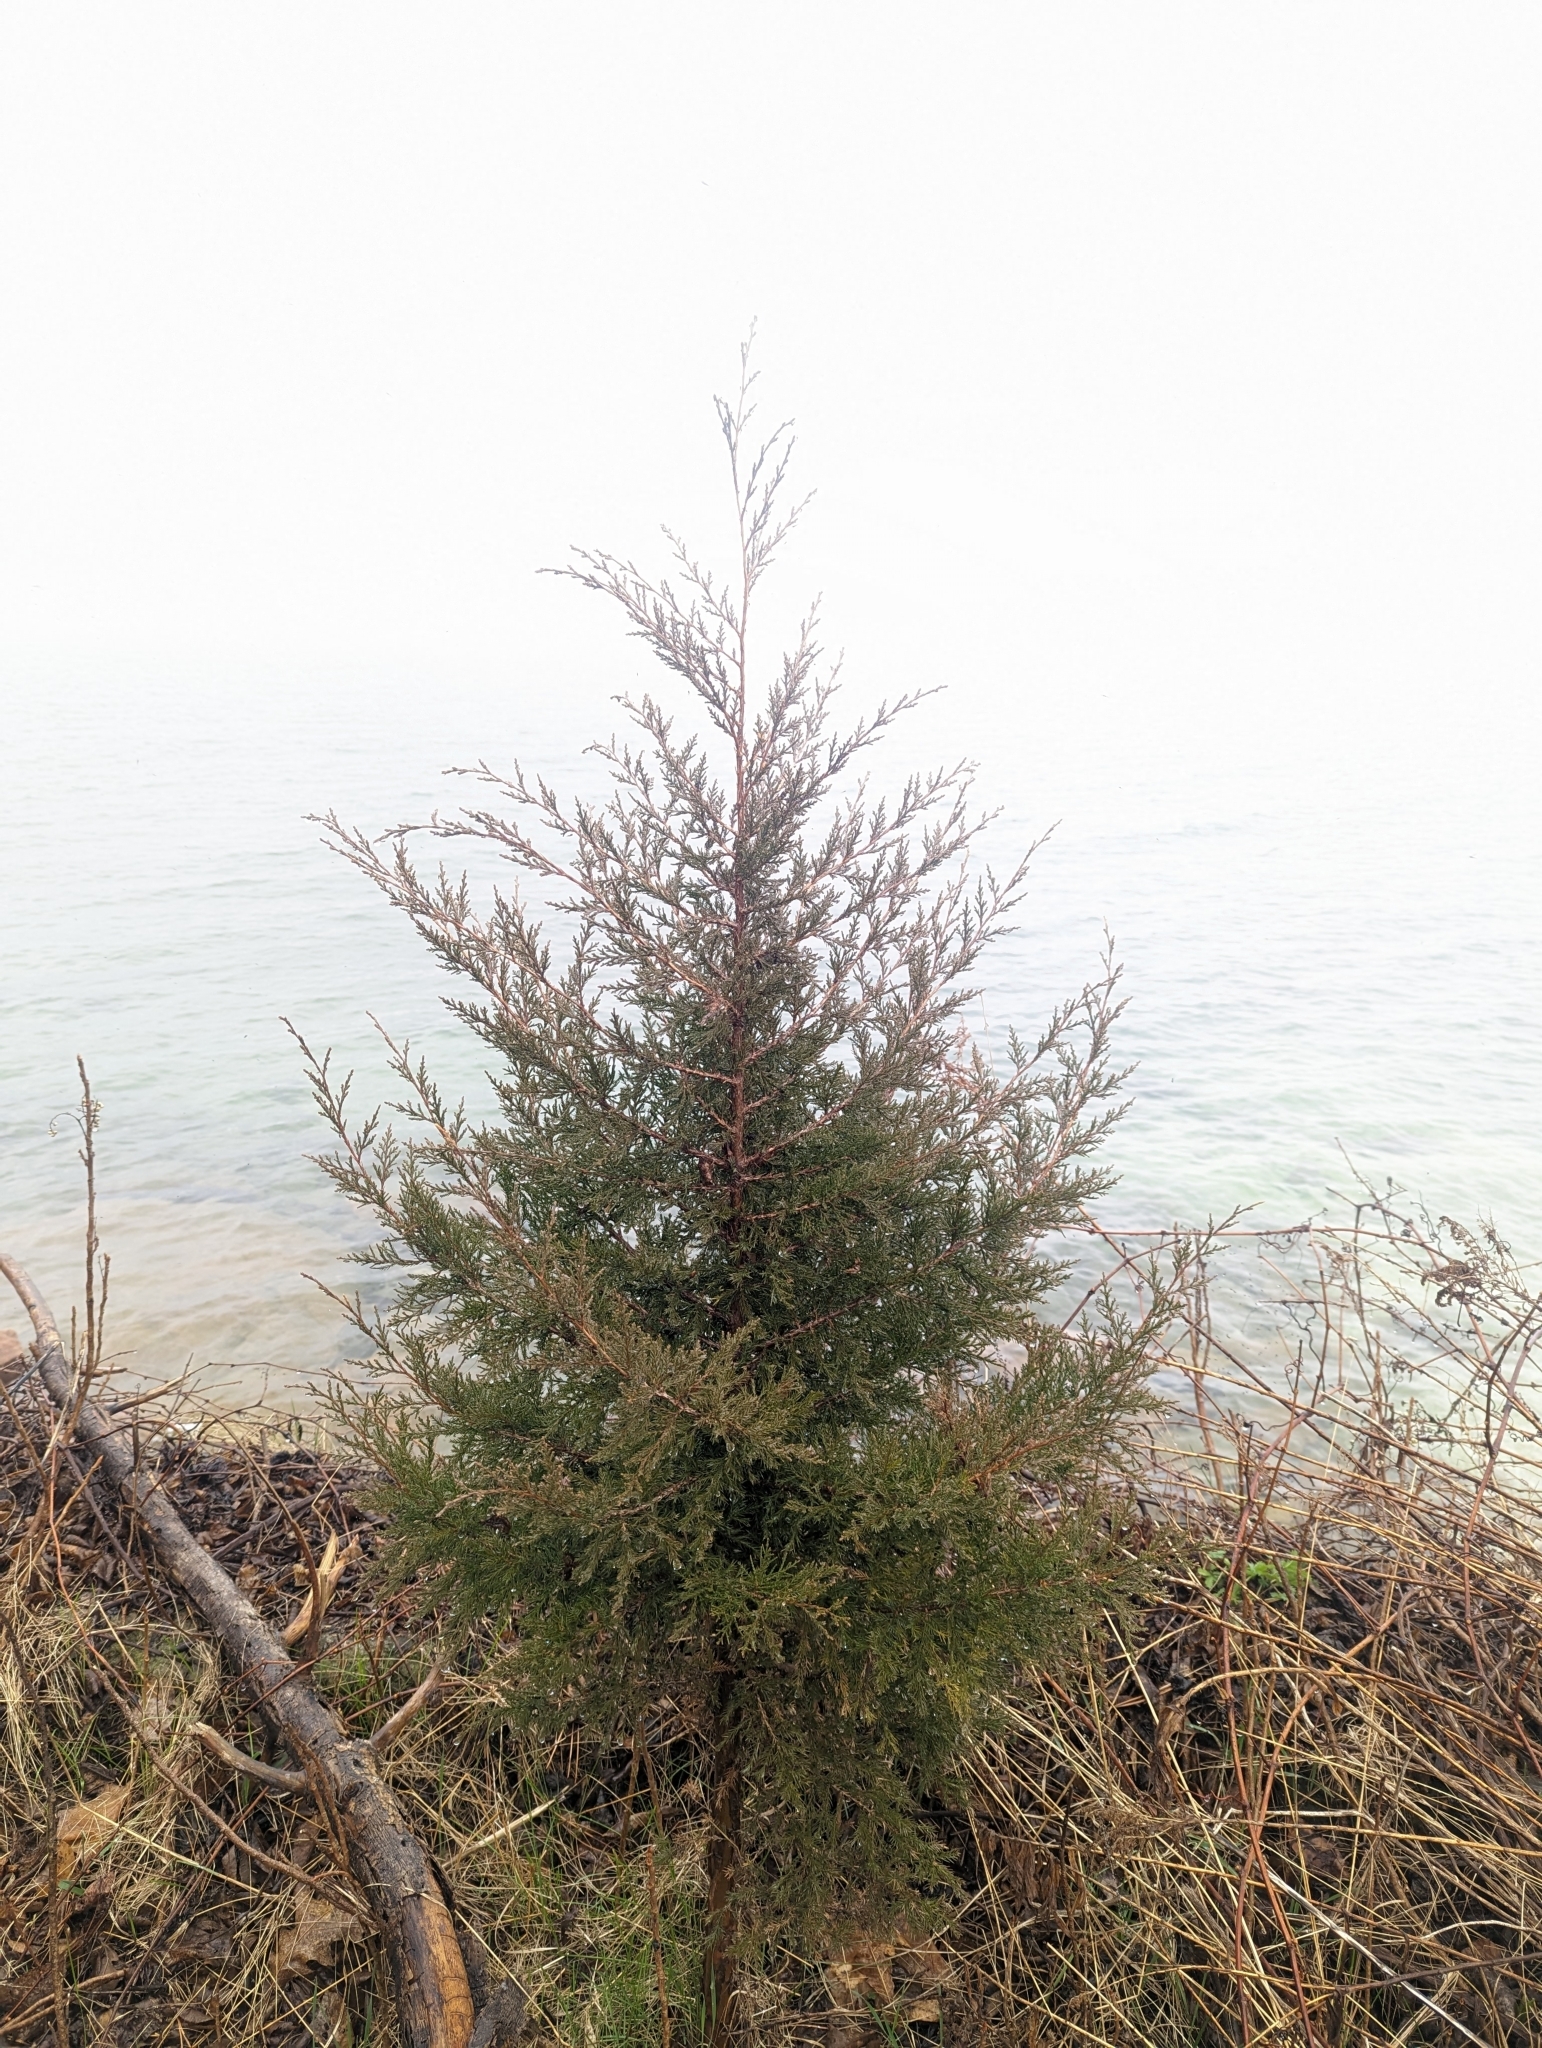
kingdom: Plantae
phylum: Tracheophyta
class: Pinopsida
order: Pinales
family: Cupressaceae
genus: Juniperus
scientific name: Juniperus virginiana
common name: Red juniper
